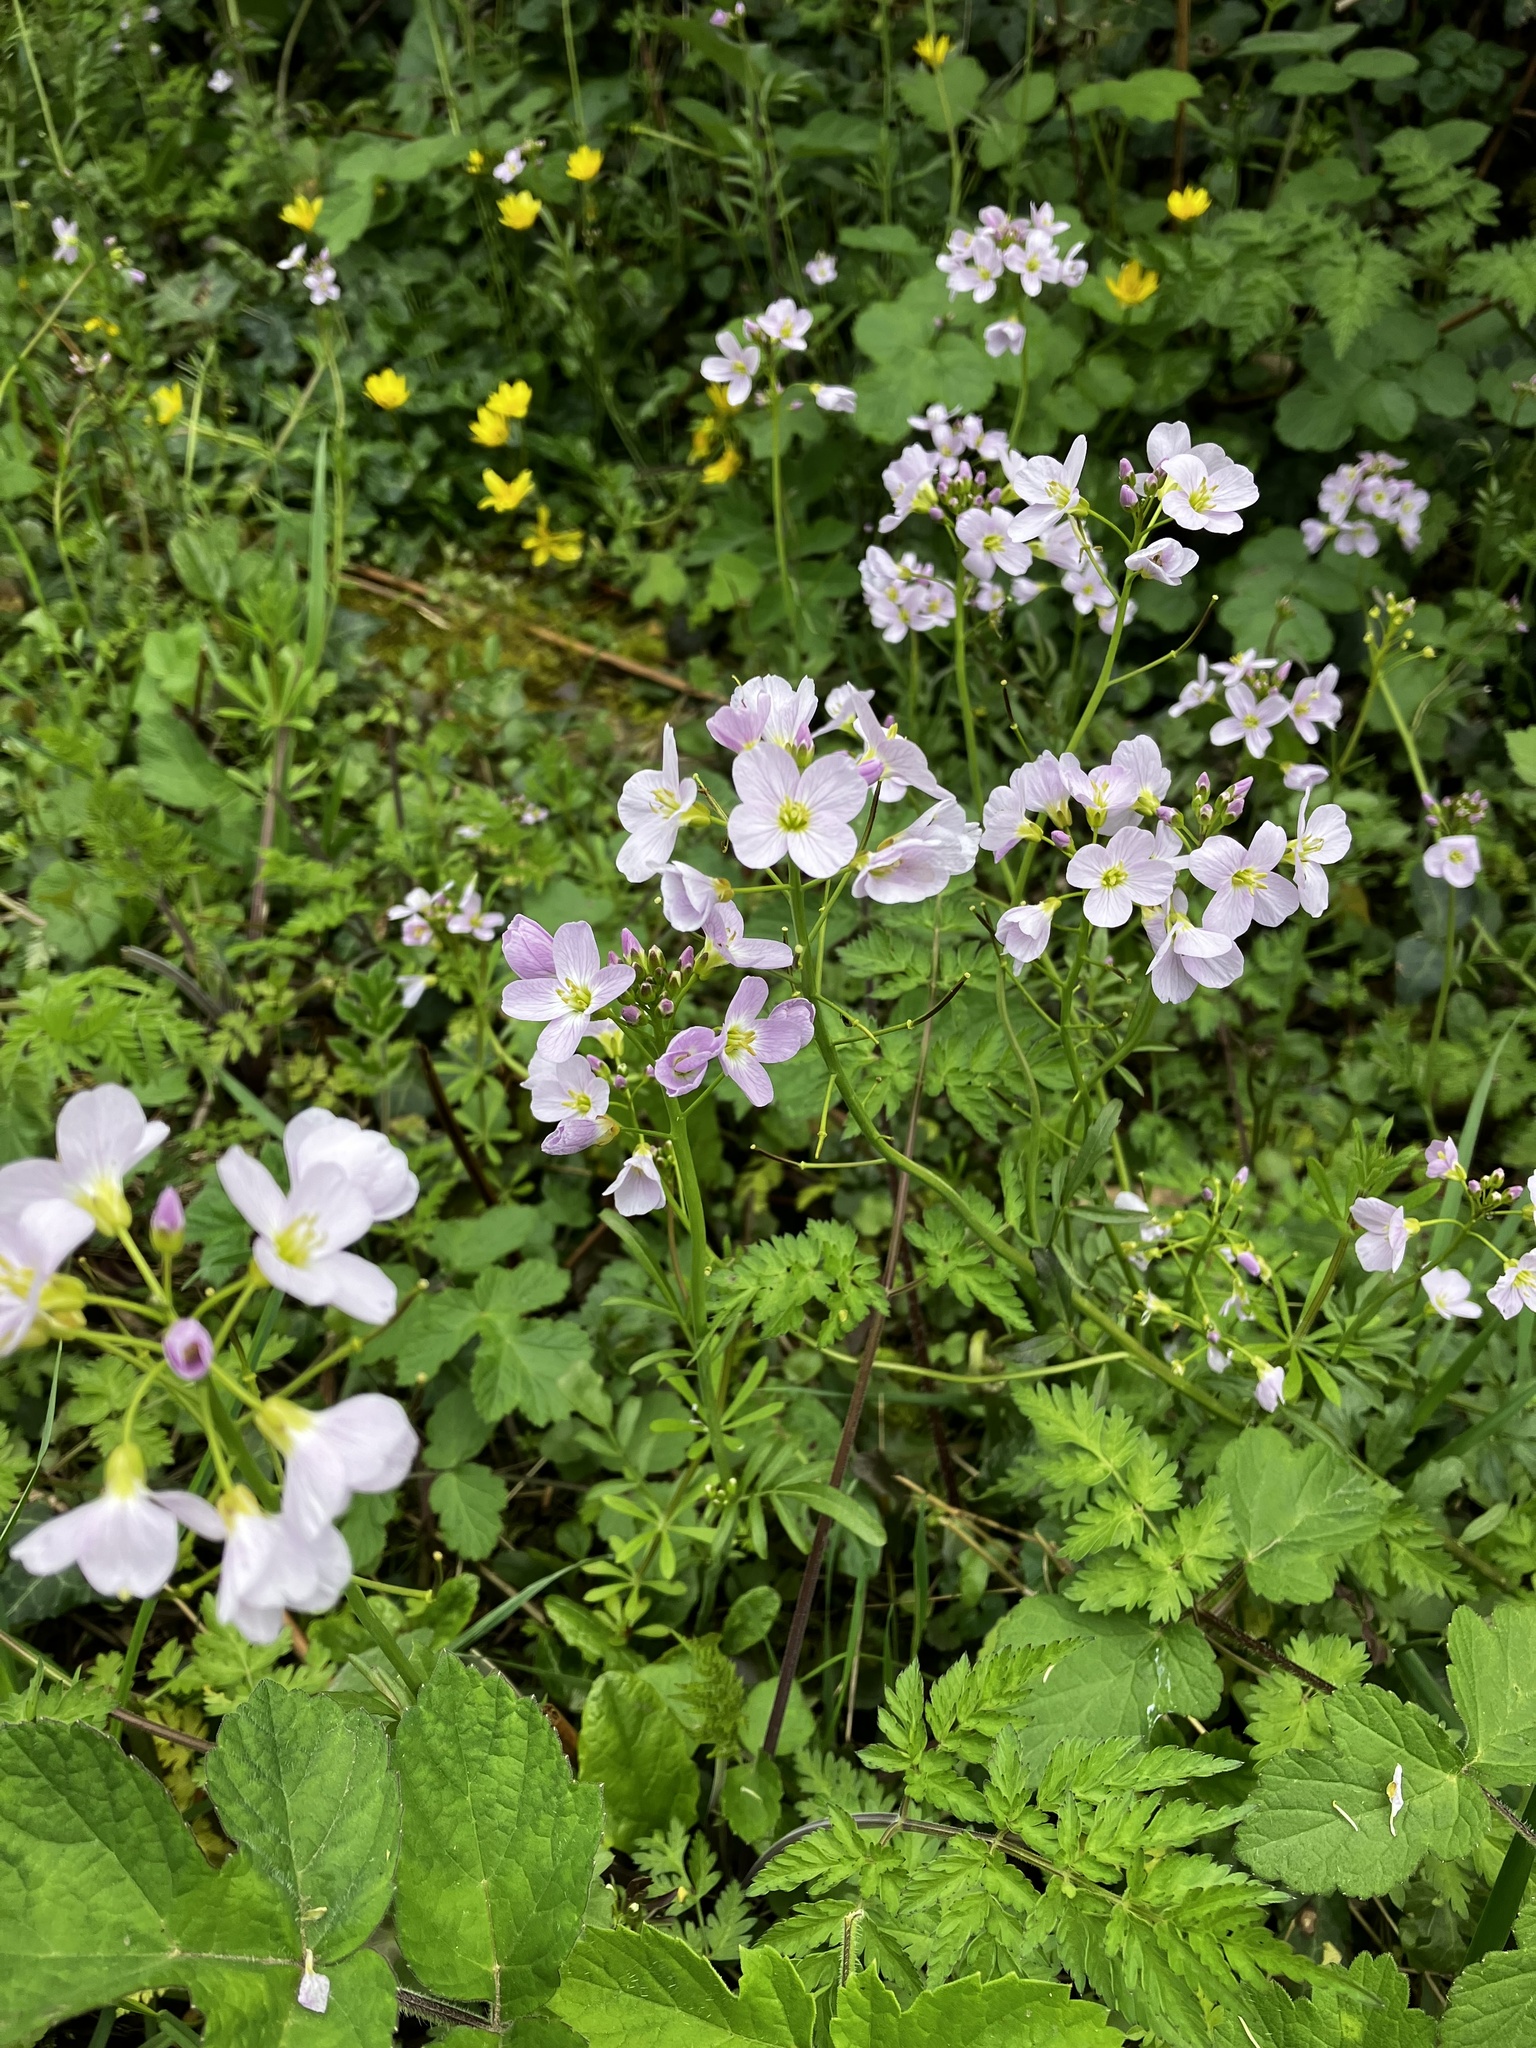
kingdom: Plantae
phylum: Tracheophyta
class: Magnoliopsida
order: Brassicales
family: Brassicaceae
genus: Cardamine
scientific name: Cardamine pratensis
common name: Cuckoo flower
